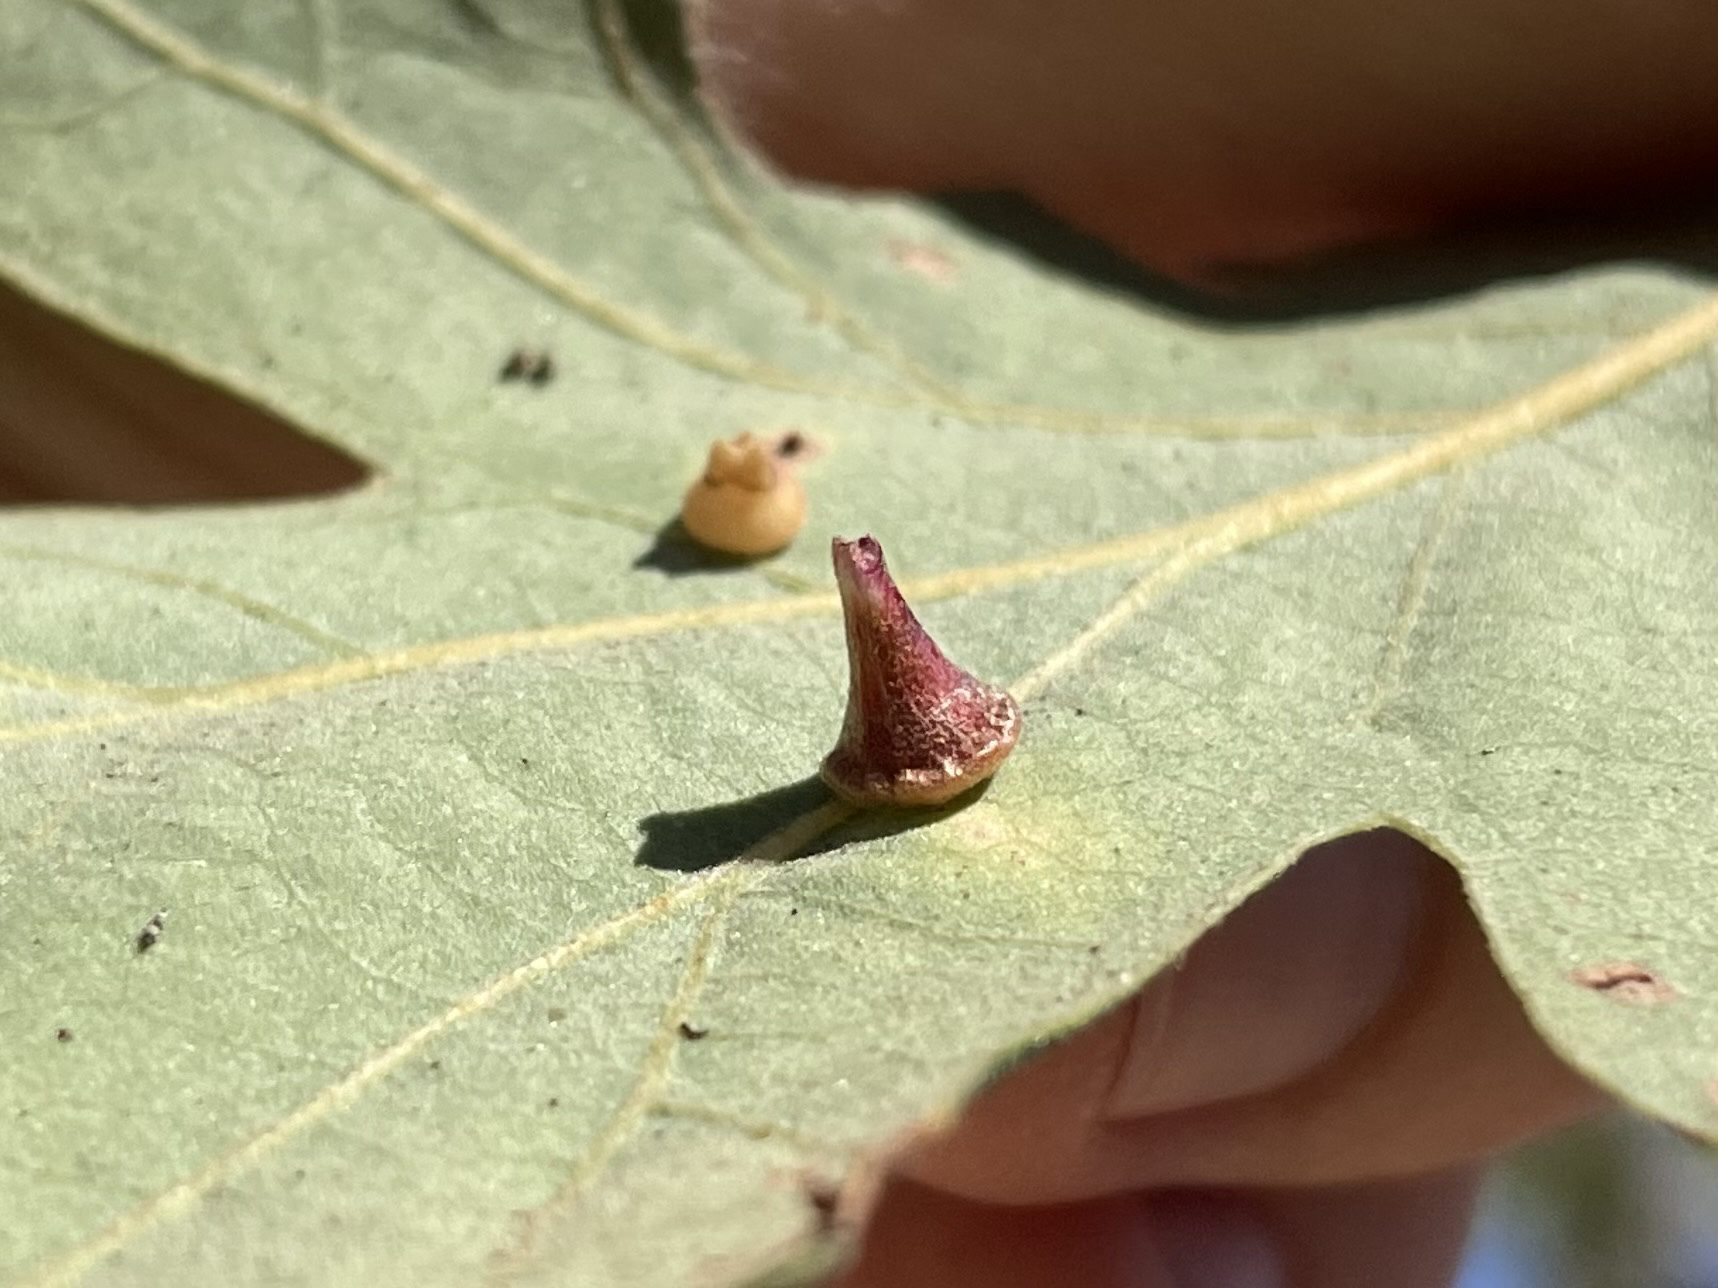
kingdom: Animalia
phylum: Arthropoda
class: Insecta
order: Hymenoptera
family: Cynipidae
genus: Andricus
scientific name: Andricus
